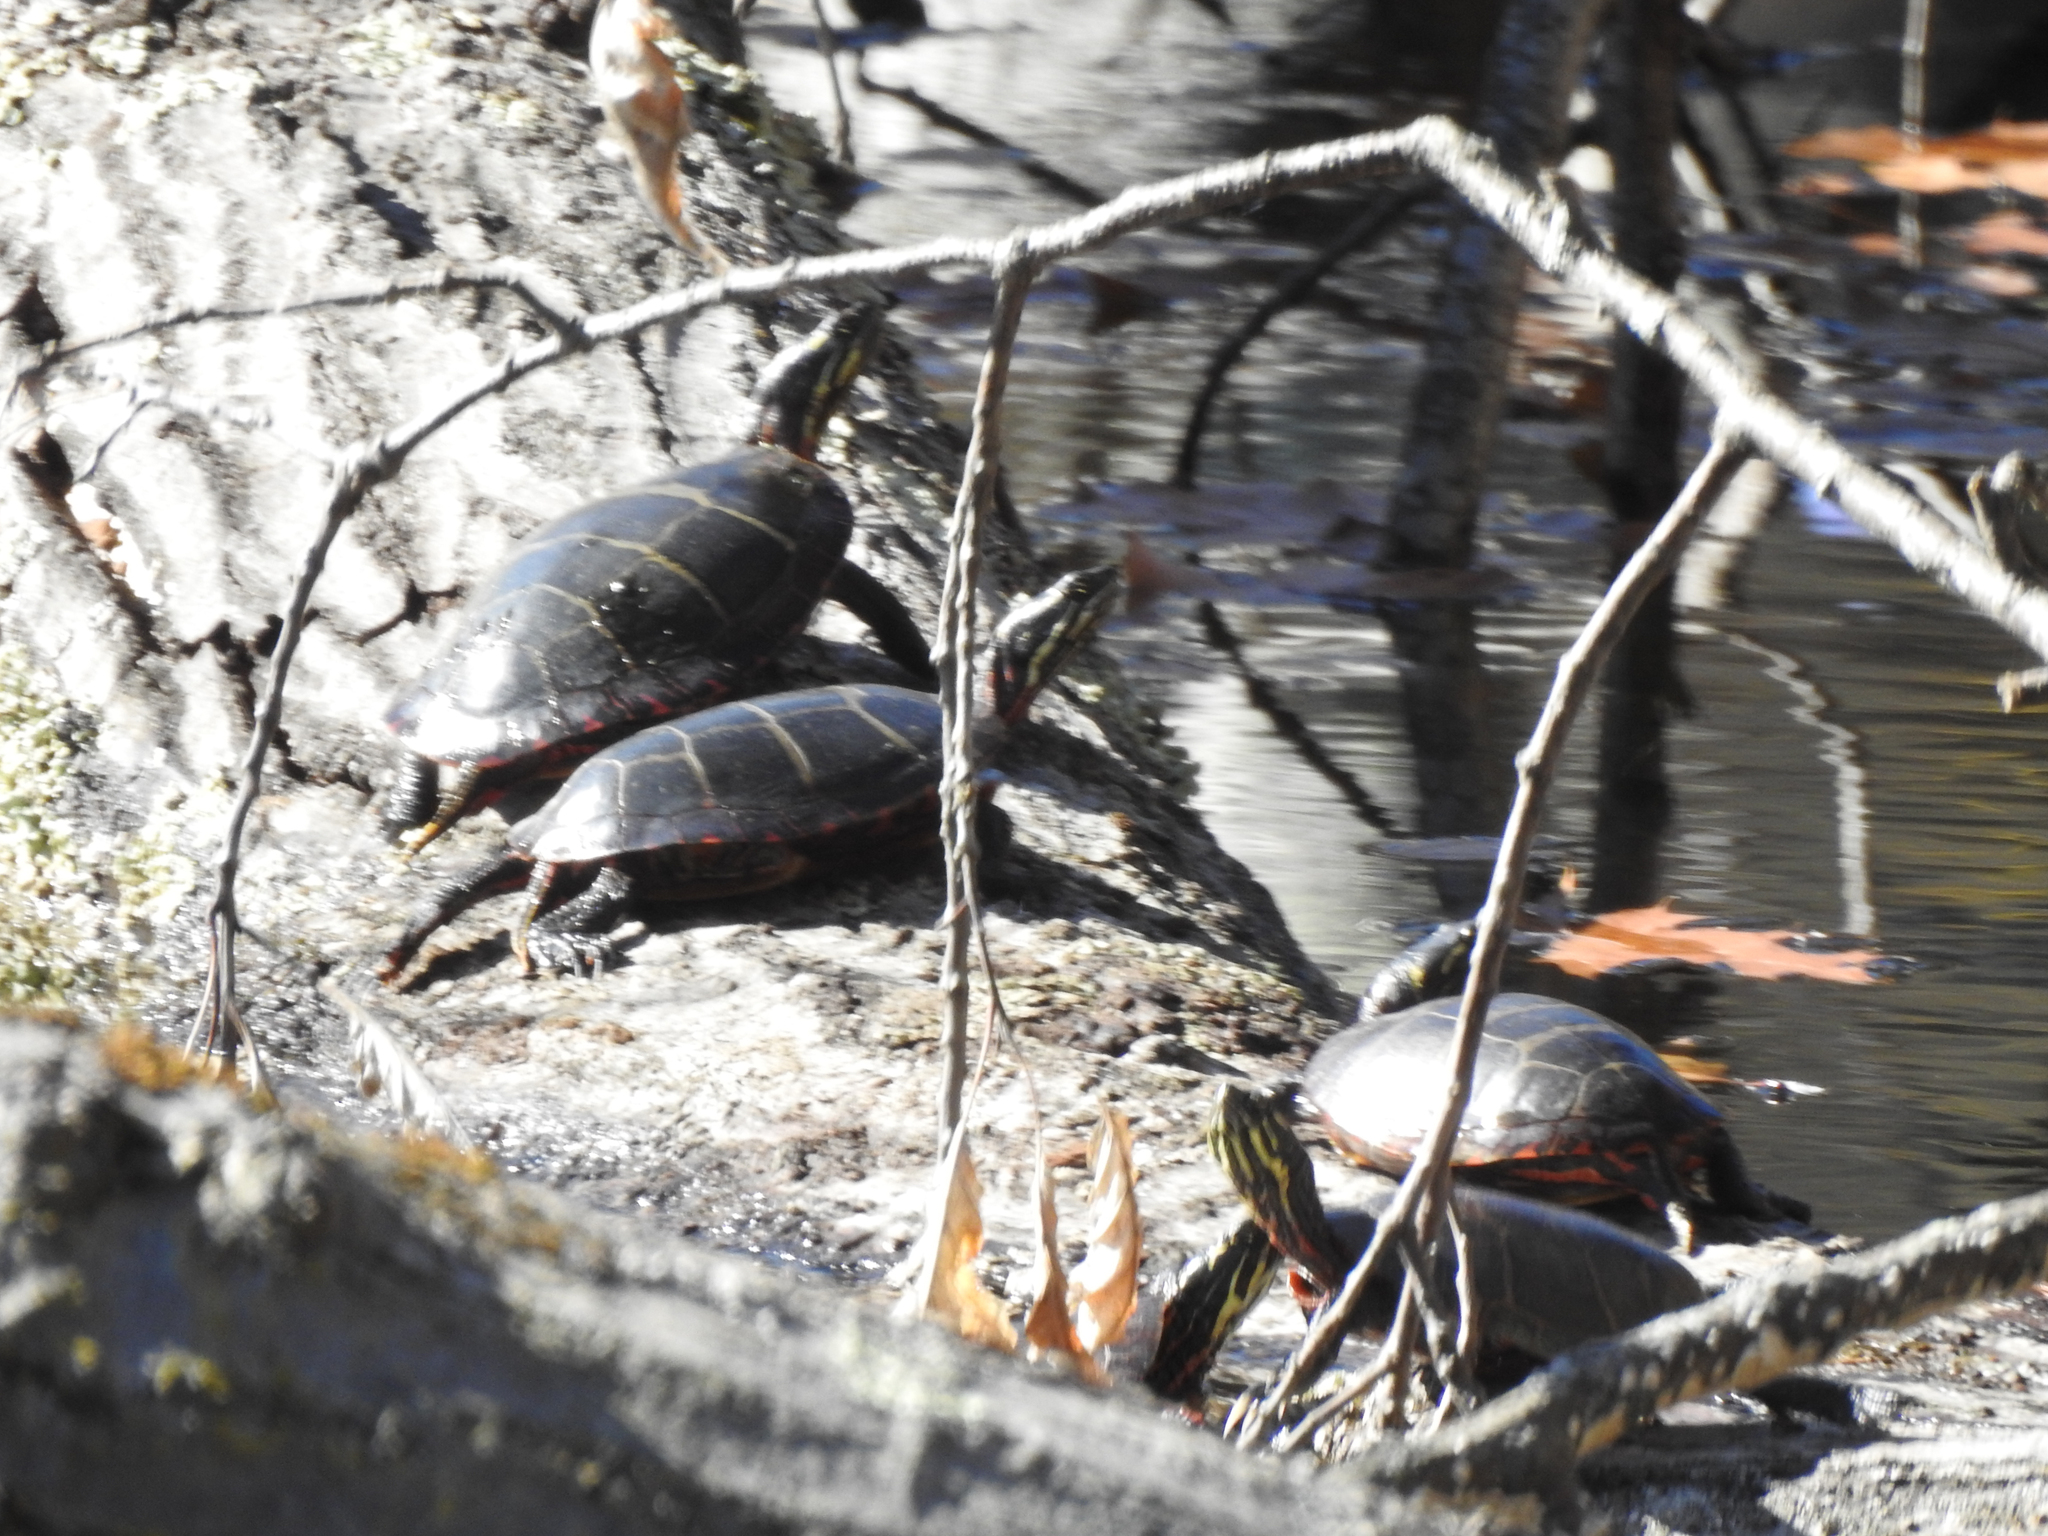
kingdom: Animalia
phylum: Chordata
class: Testudines
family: Emydidae
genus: Chrysemys
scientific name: Chrysemys picta
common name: Painted turtle
